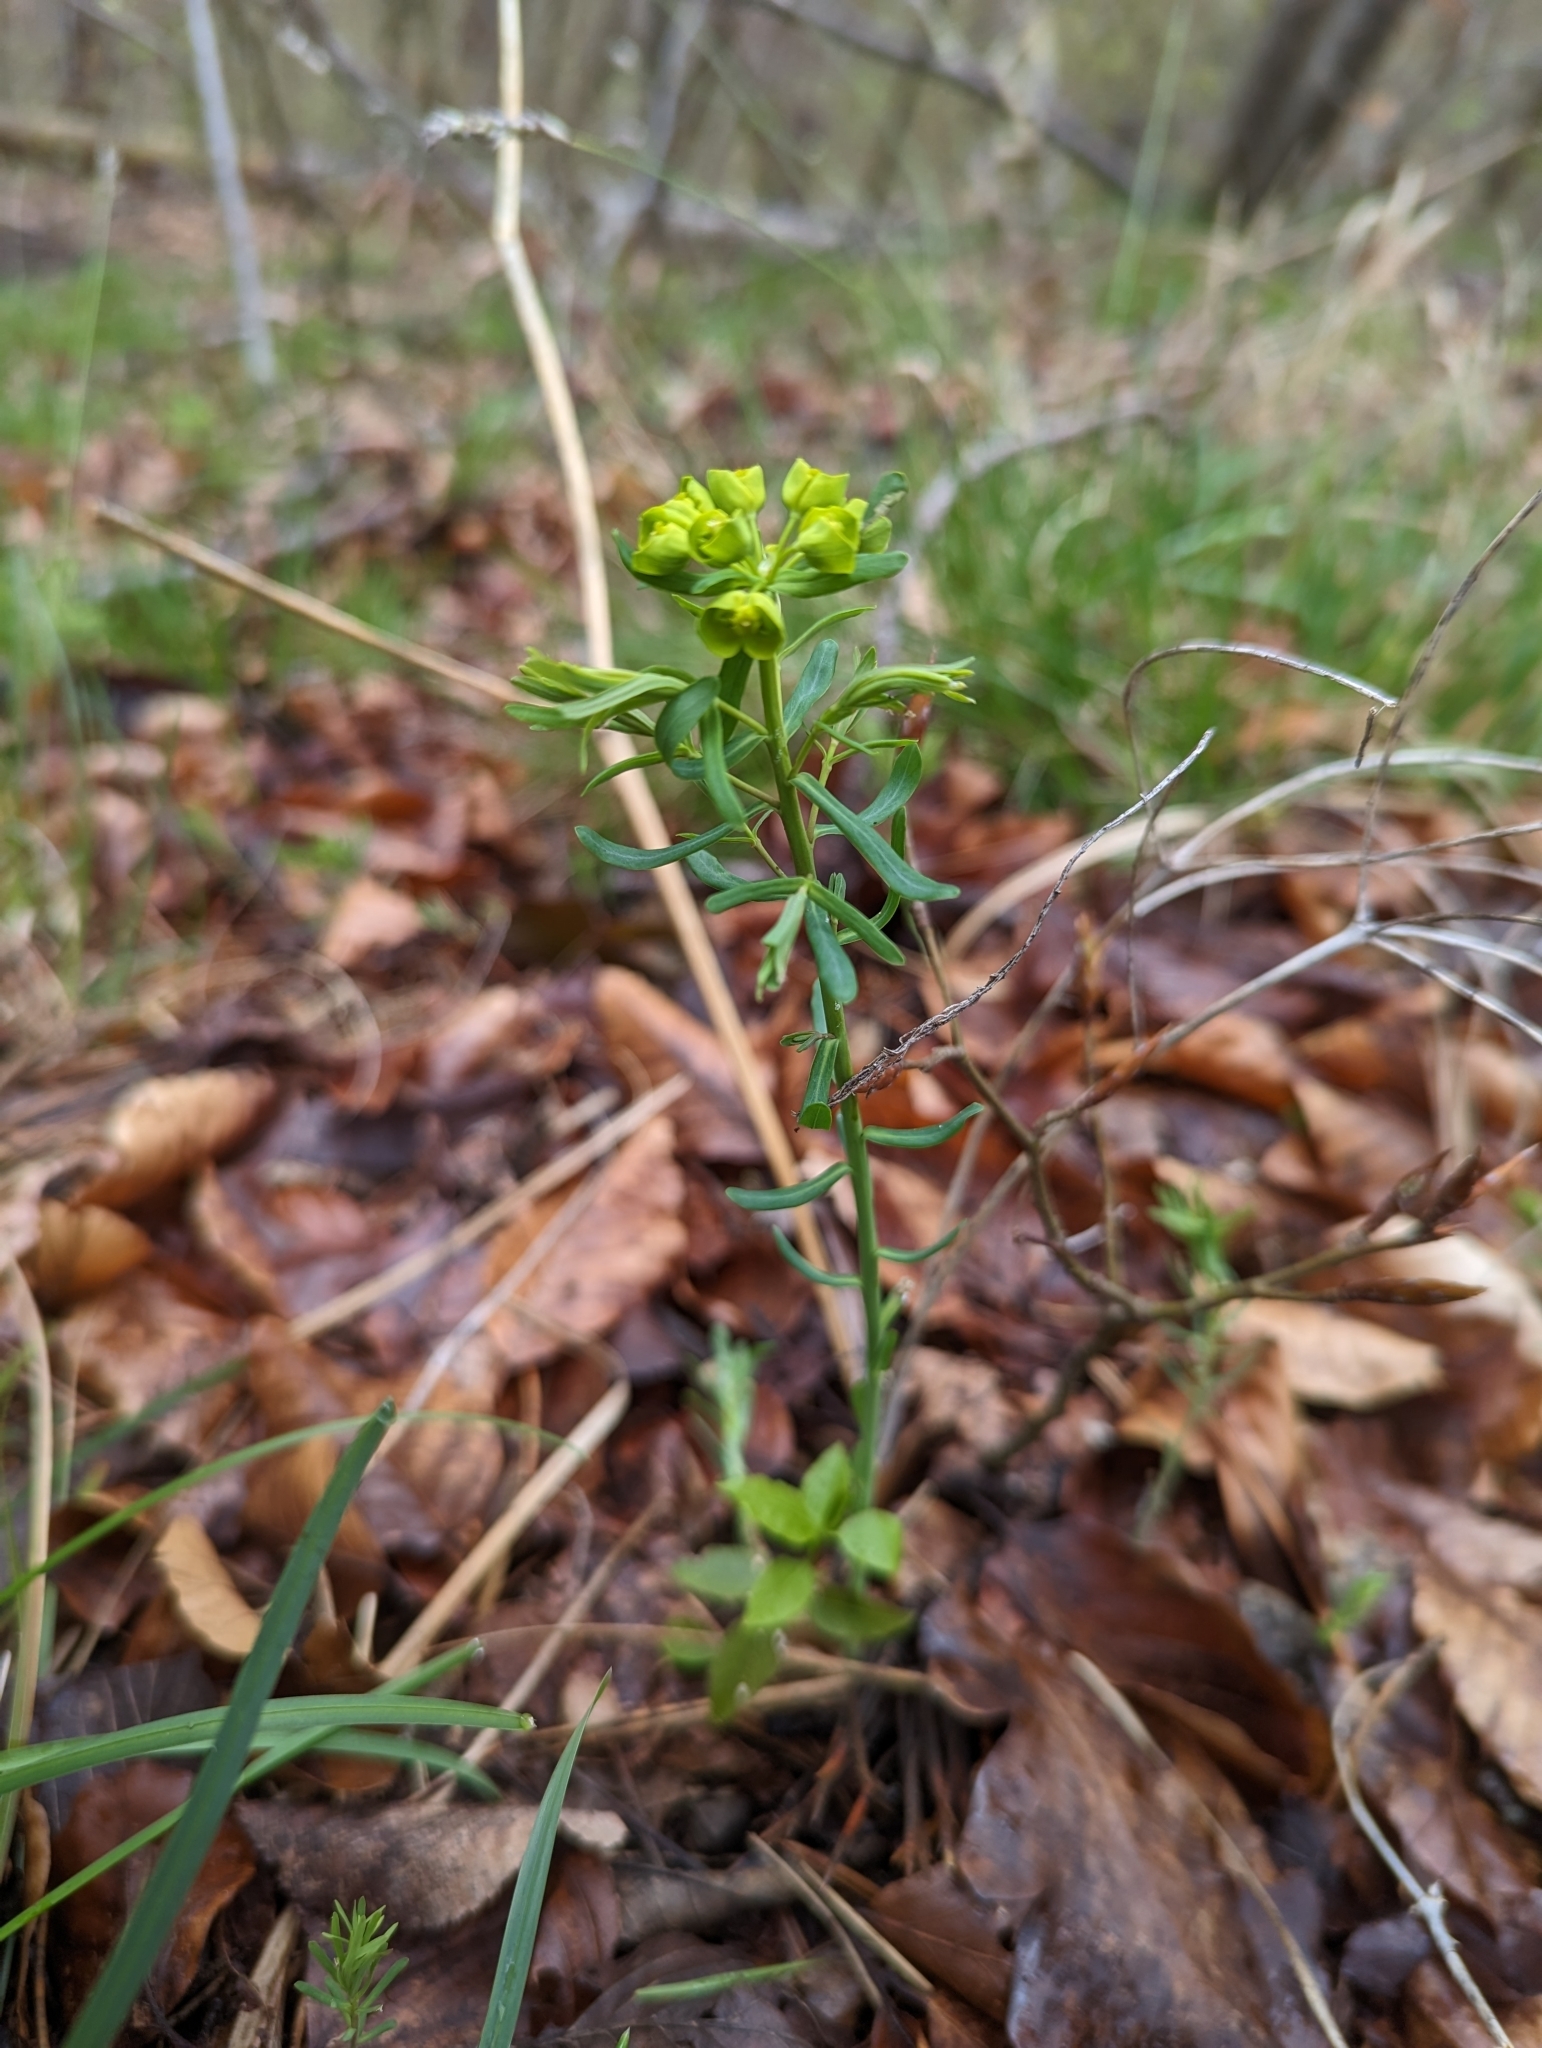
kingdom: Plantae
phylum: Tracheophyta
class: Magnoliopsida
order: Malpighiales
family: Euphorbiaceae
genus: Euphorbia
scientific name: Euphorbia cyparissias
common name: Cypress spurge
